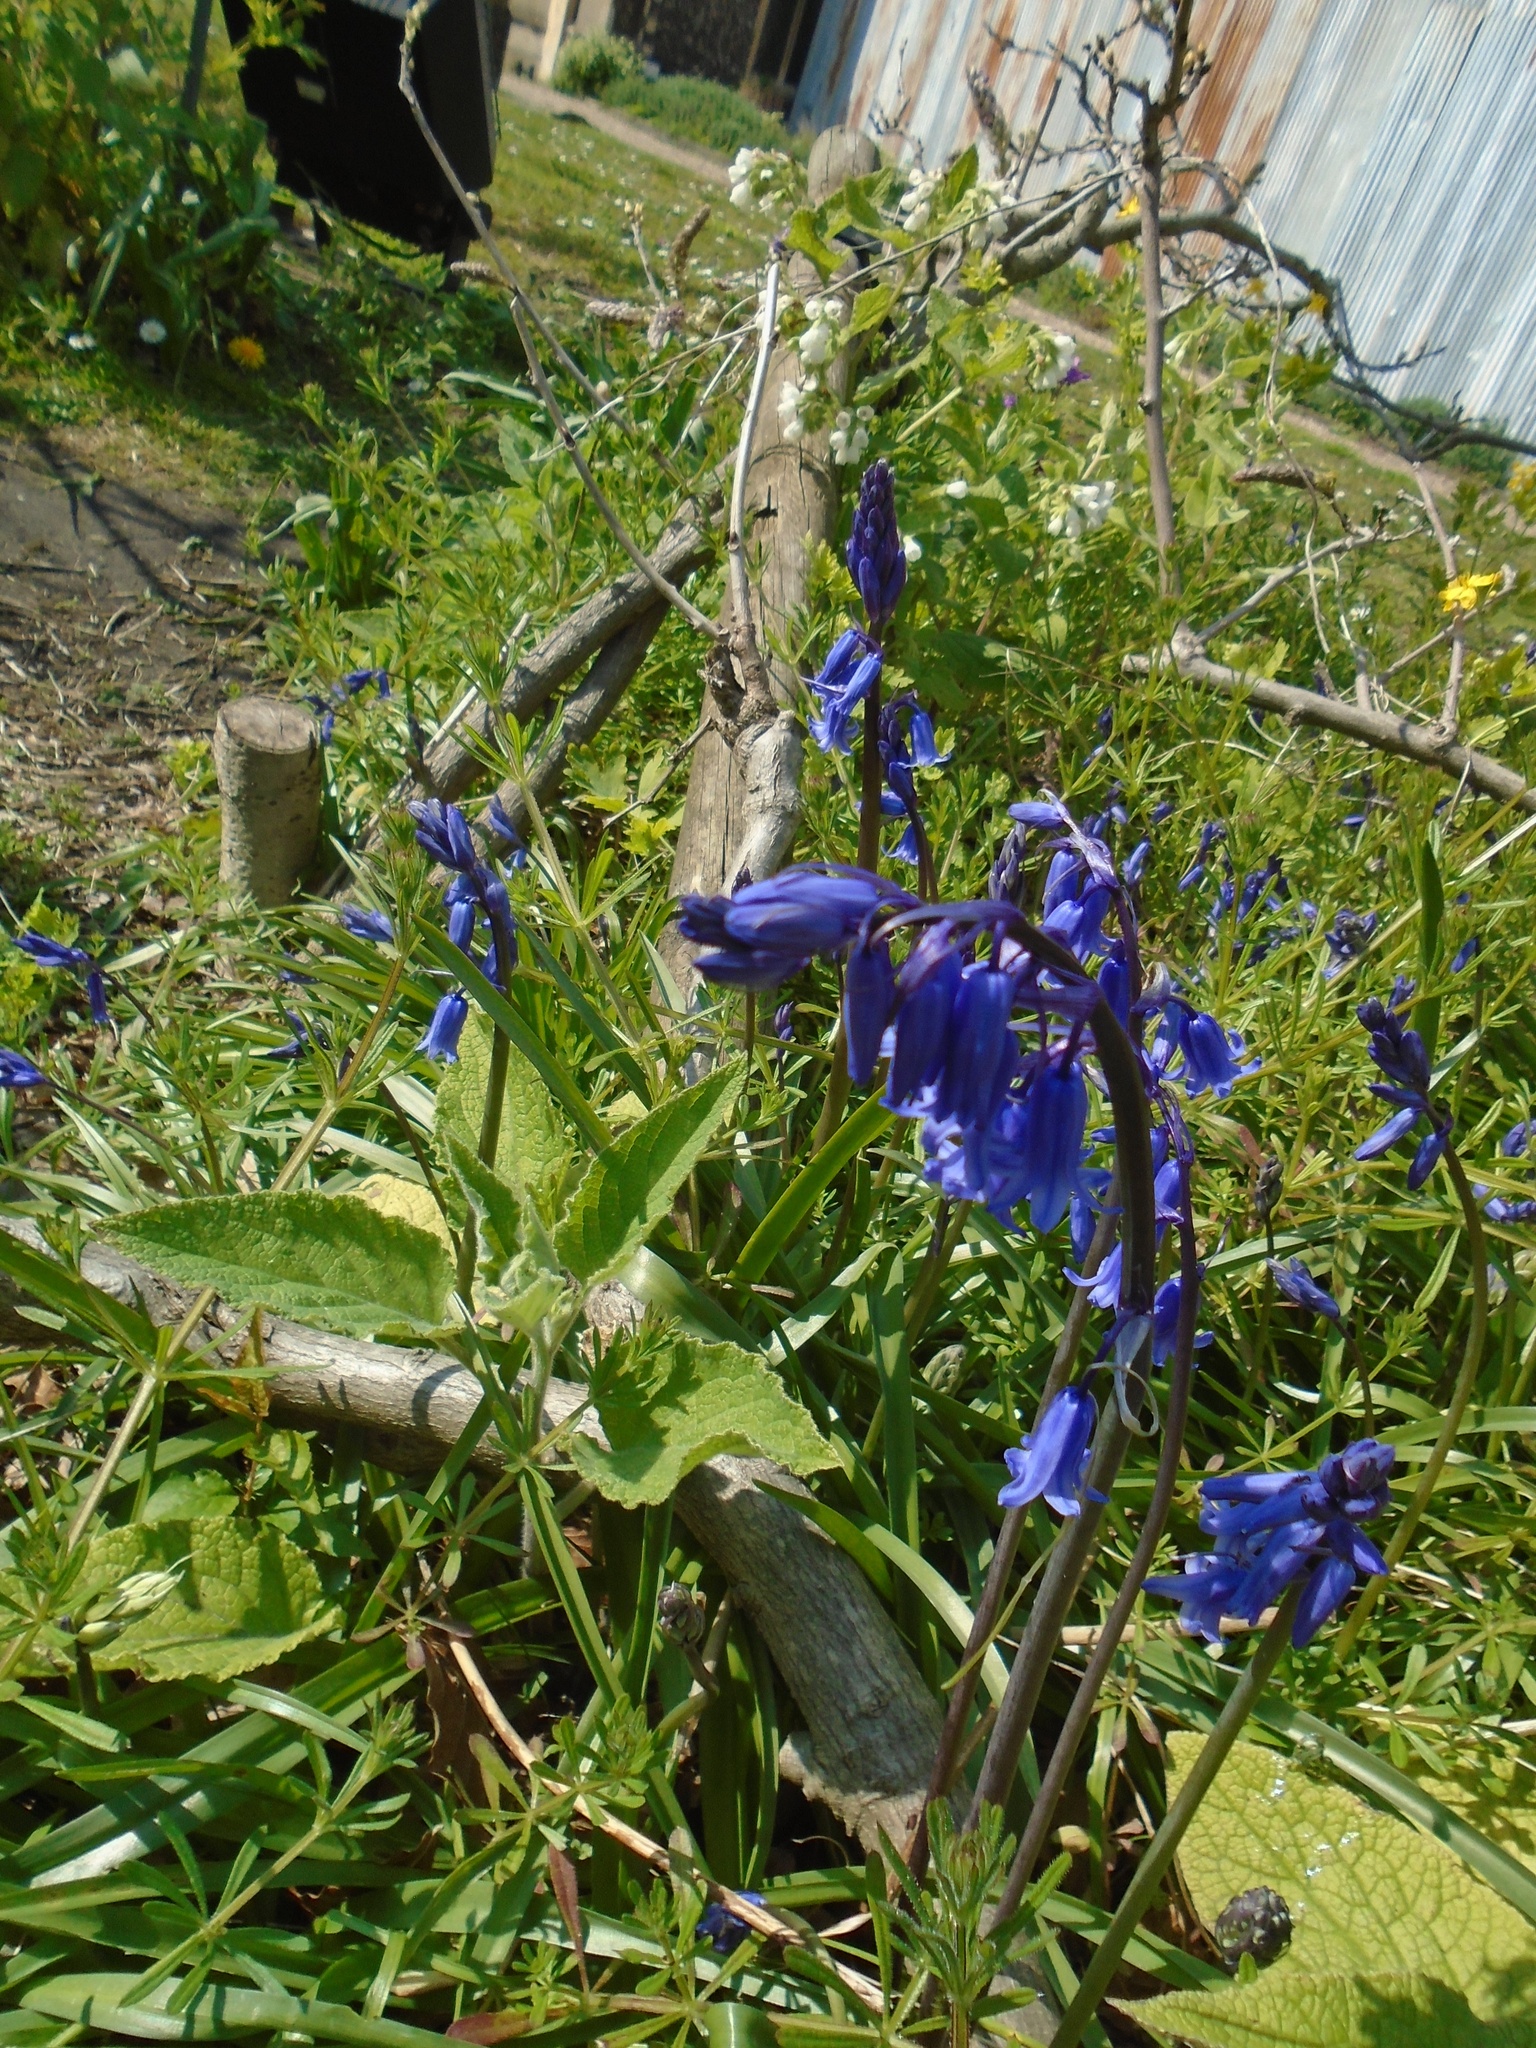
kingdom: Plantae
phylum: Tracheophyta
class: Liliopsida
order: Asparagales
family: Asparagaceae
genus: Hyacinthoides
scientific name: Hyacinthoides non-scripta
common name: Bluebell
